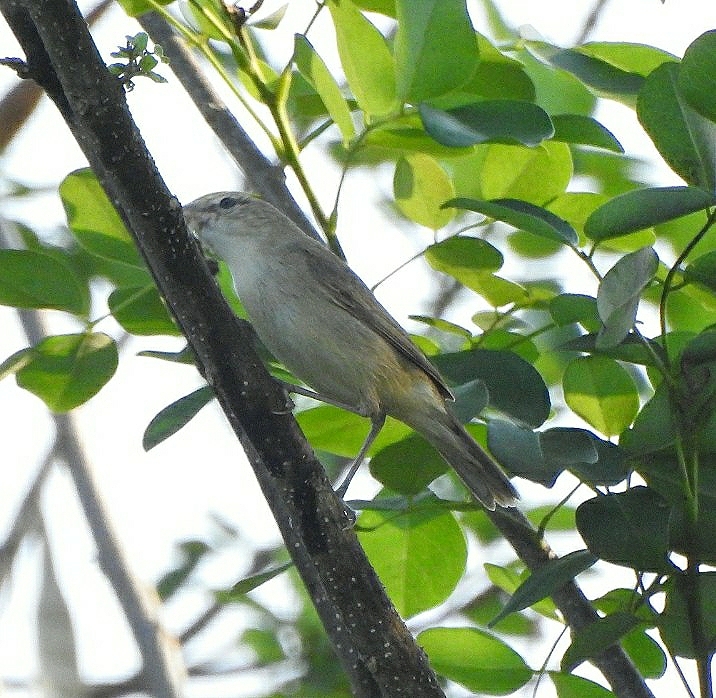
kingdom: Animalia
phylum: Chordata
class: Aves
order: Passeriformes
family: Acrocephalidae
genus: Acrocephalus
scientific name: Acrocephalus stentoreus
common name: Clamorous reed warbler
